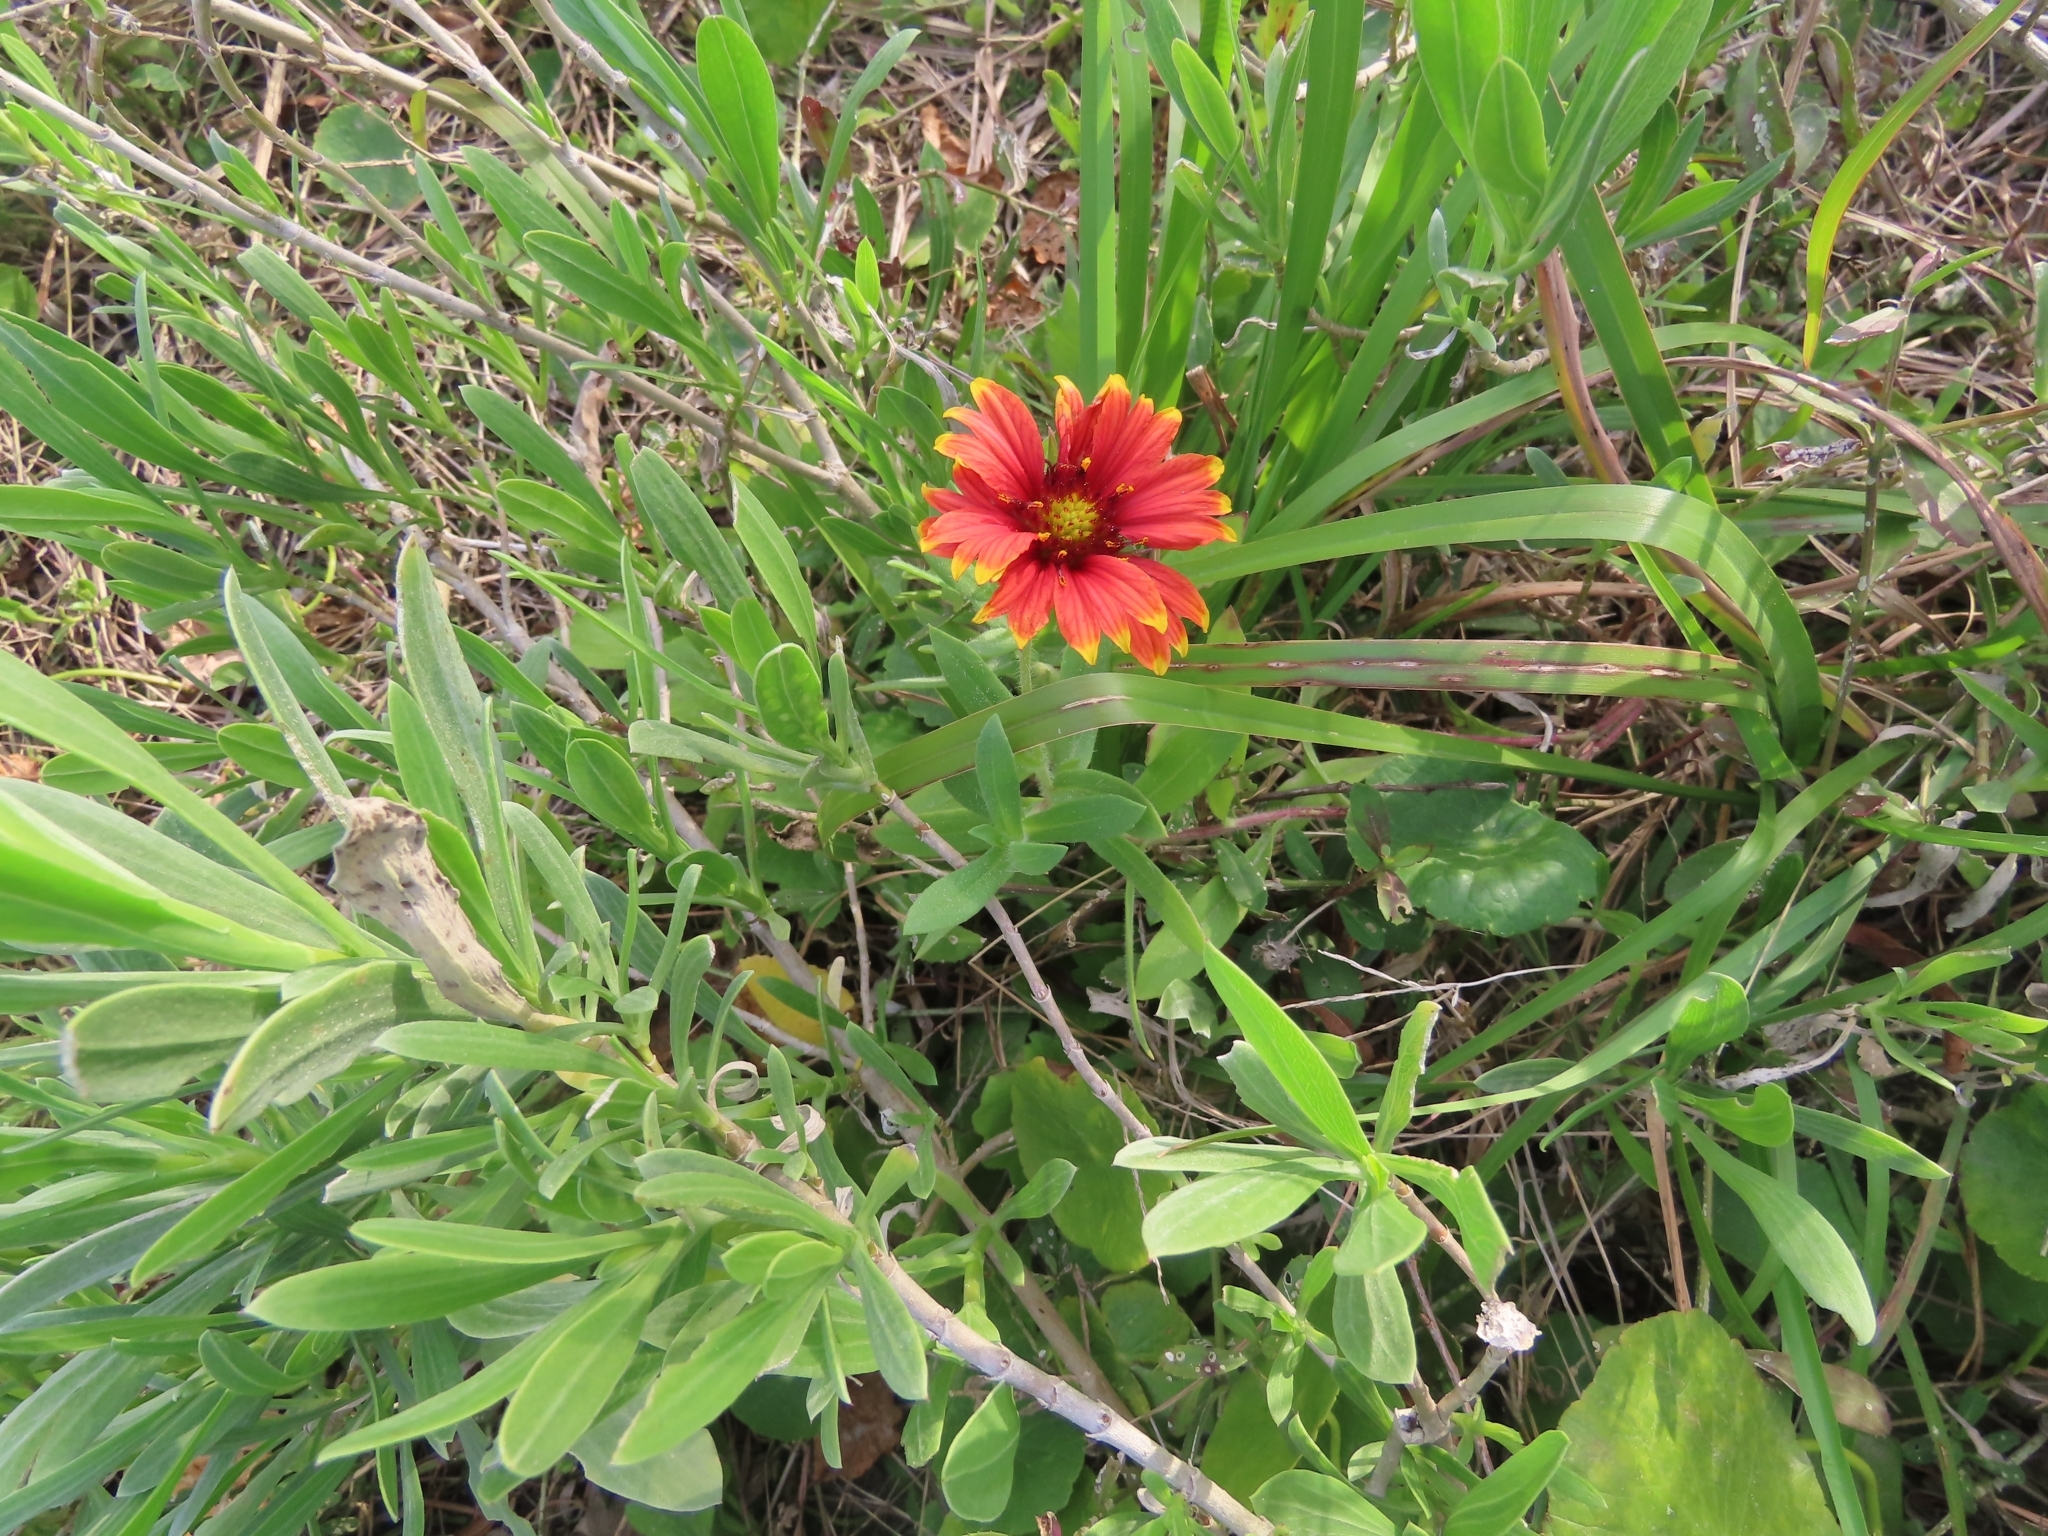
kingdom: Plantae
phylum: Tracheophyta
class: Magnoliopsida
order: Asterales
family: Asteraceae
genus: Gaillardia
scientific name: Gaillardia pulchella
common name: Firewheel
